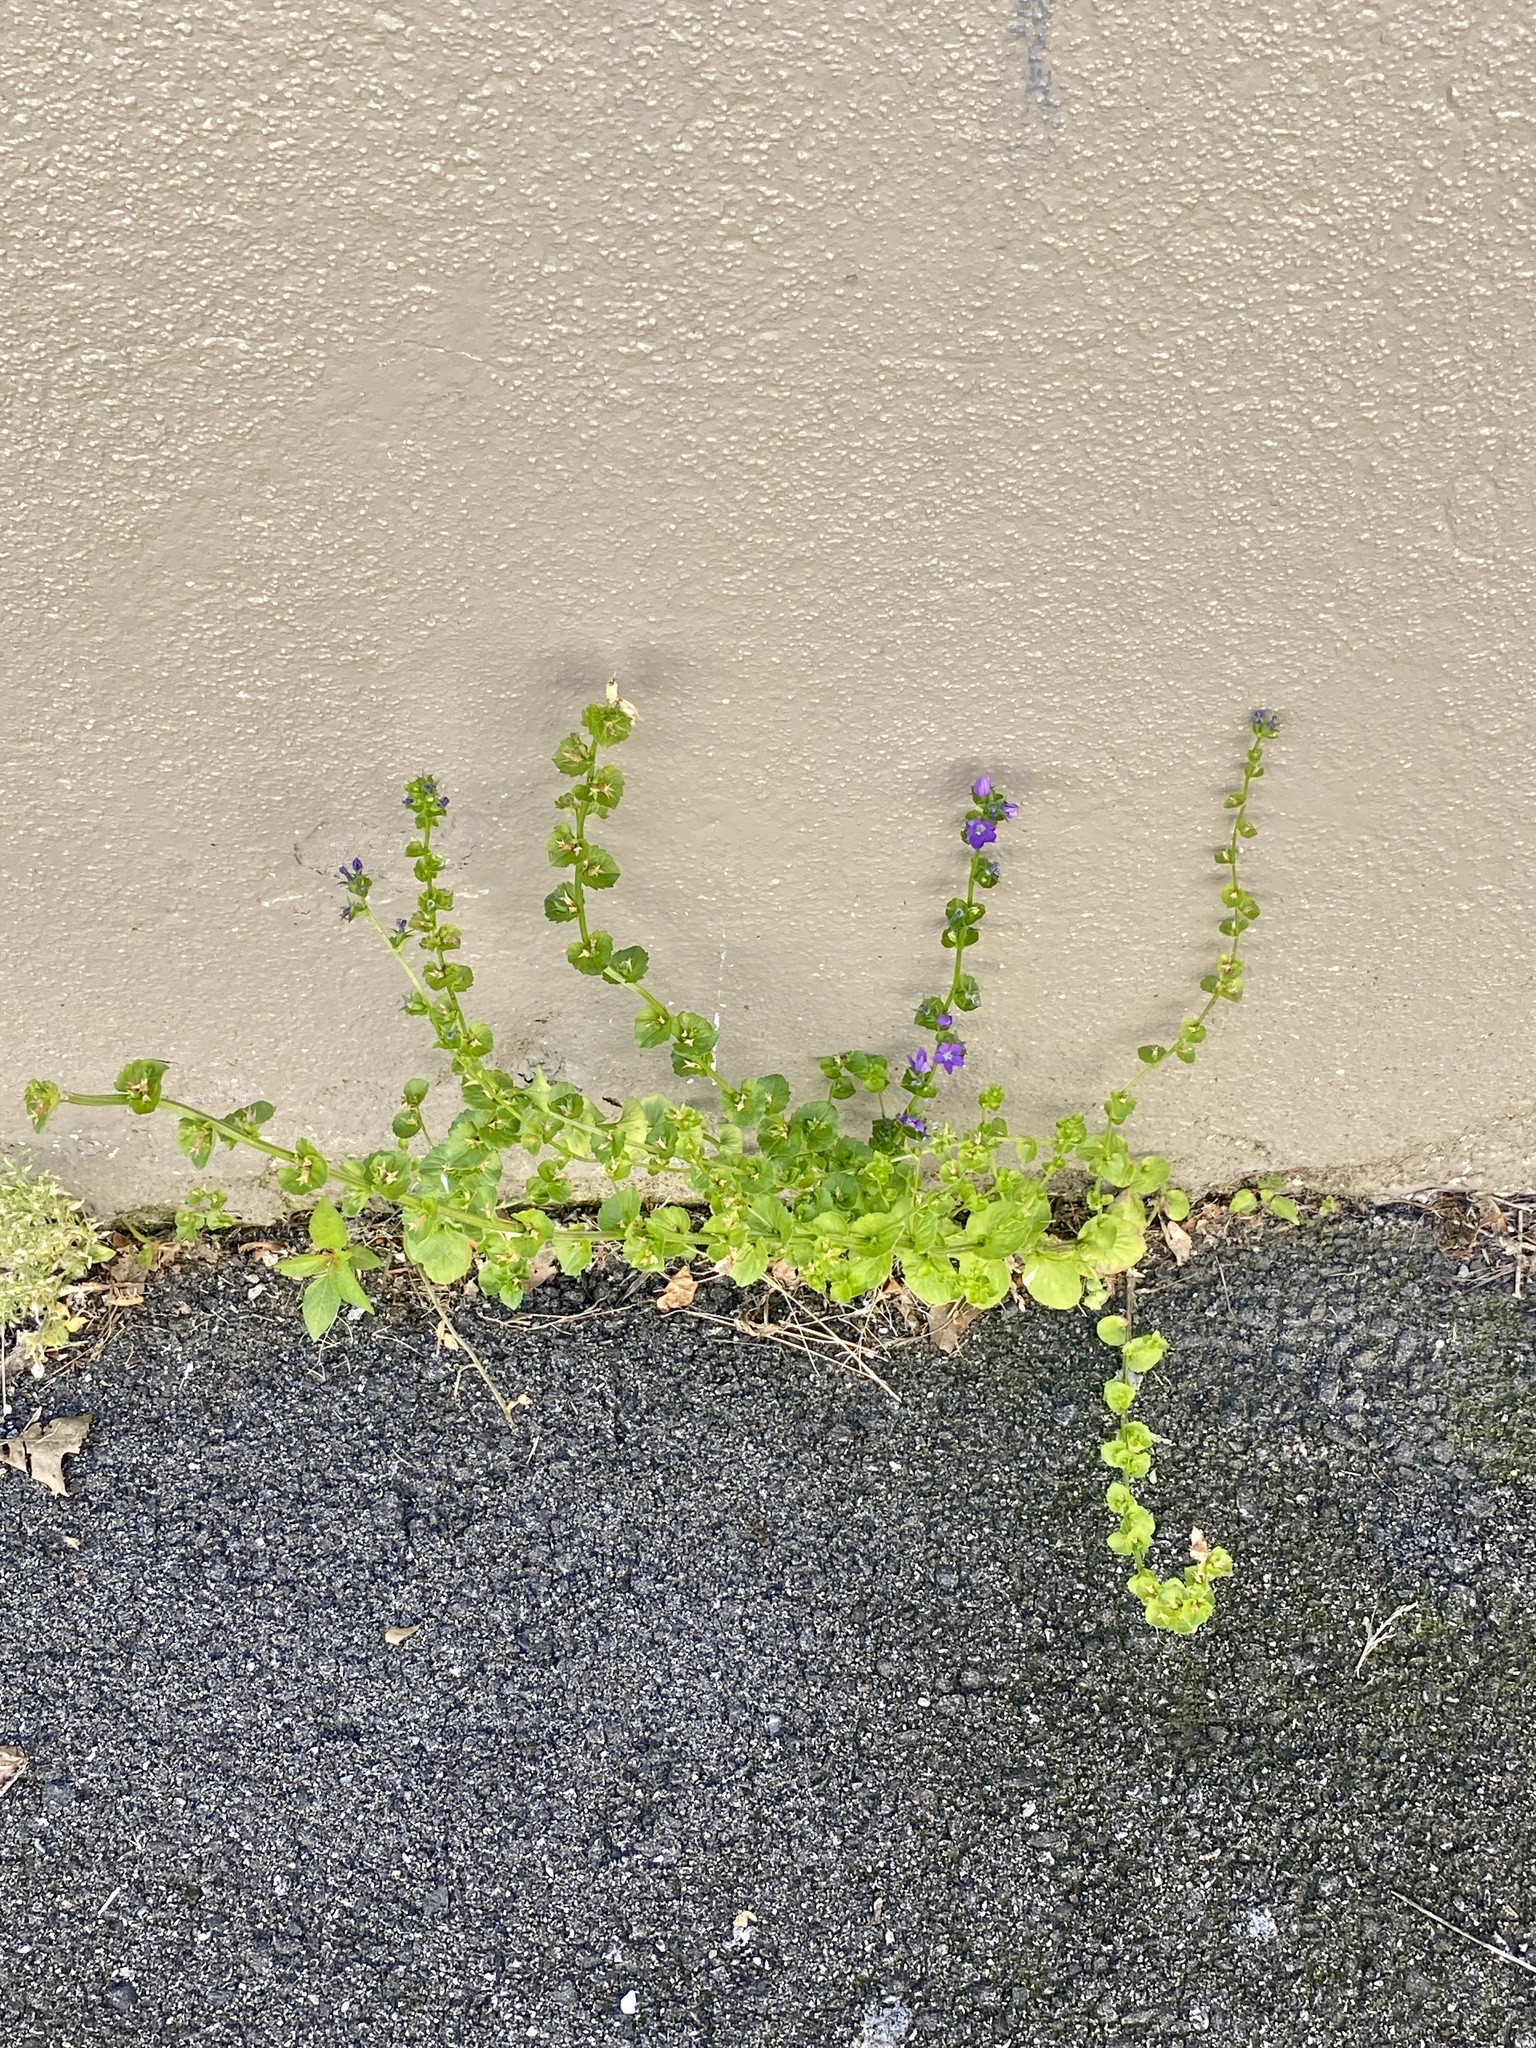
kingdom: Plantae
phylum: Tracheophyta
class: Magnoliopsida
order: Asterales
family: Campanulaceae
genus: Triodanis
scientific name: Triodanis perfoliata
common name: Clasping venus' looking-glass
